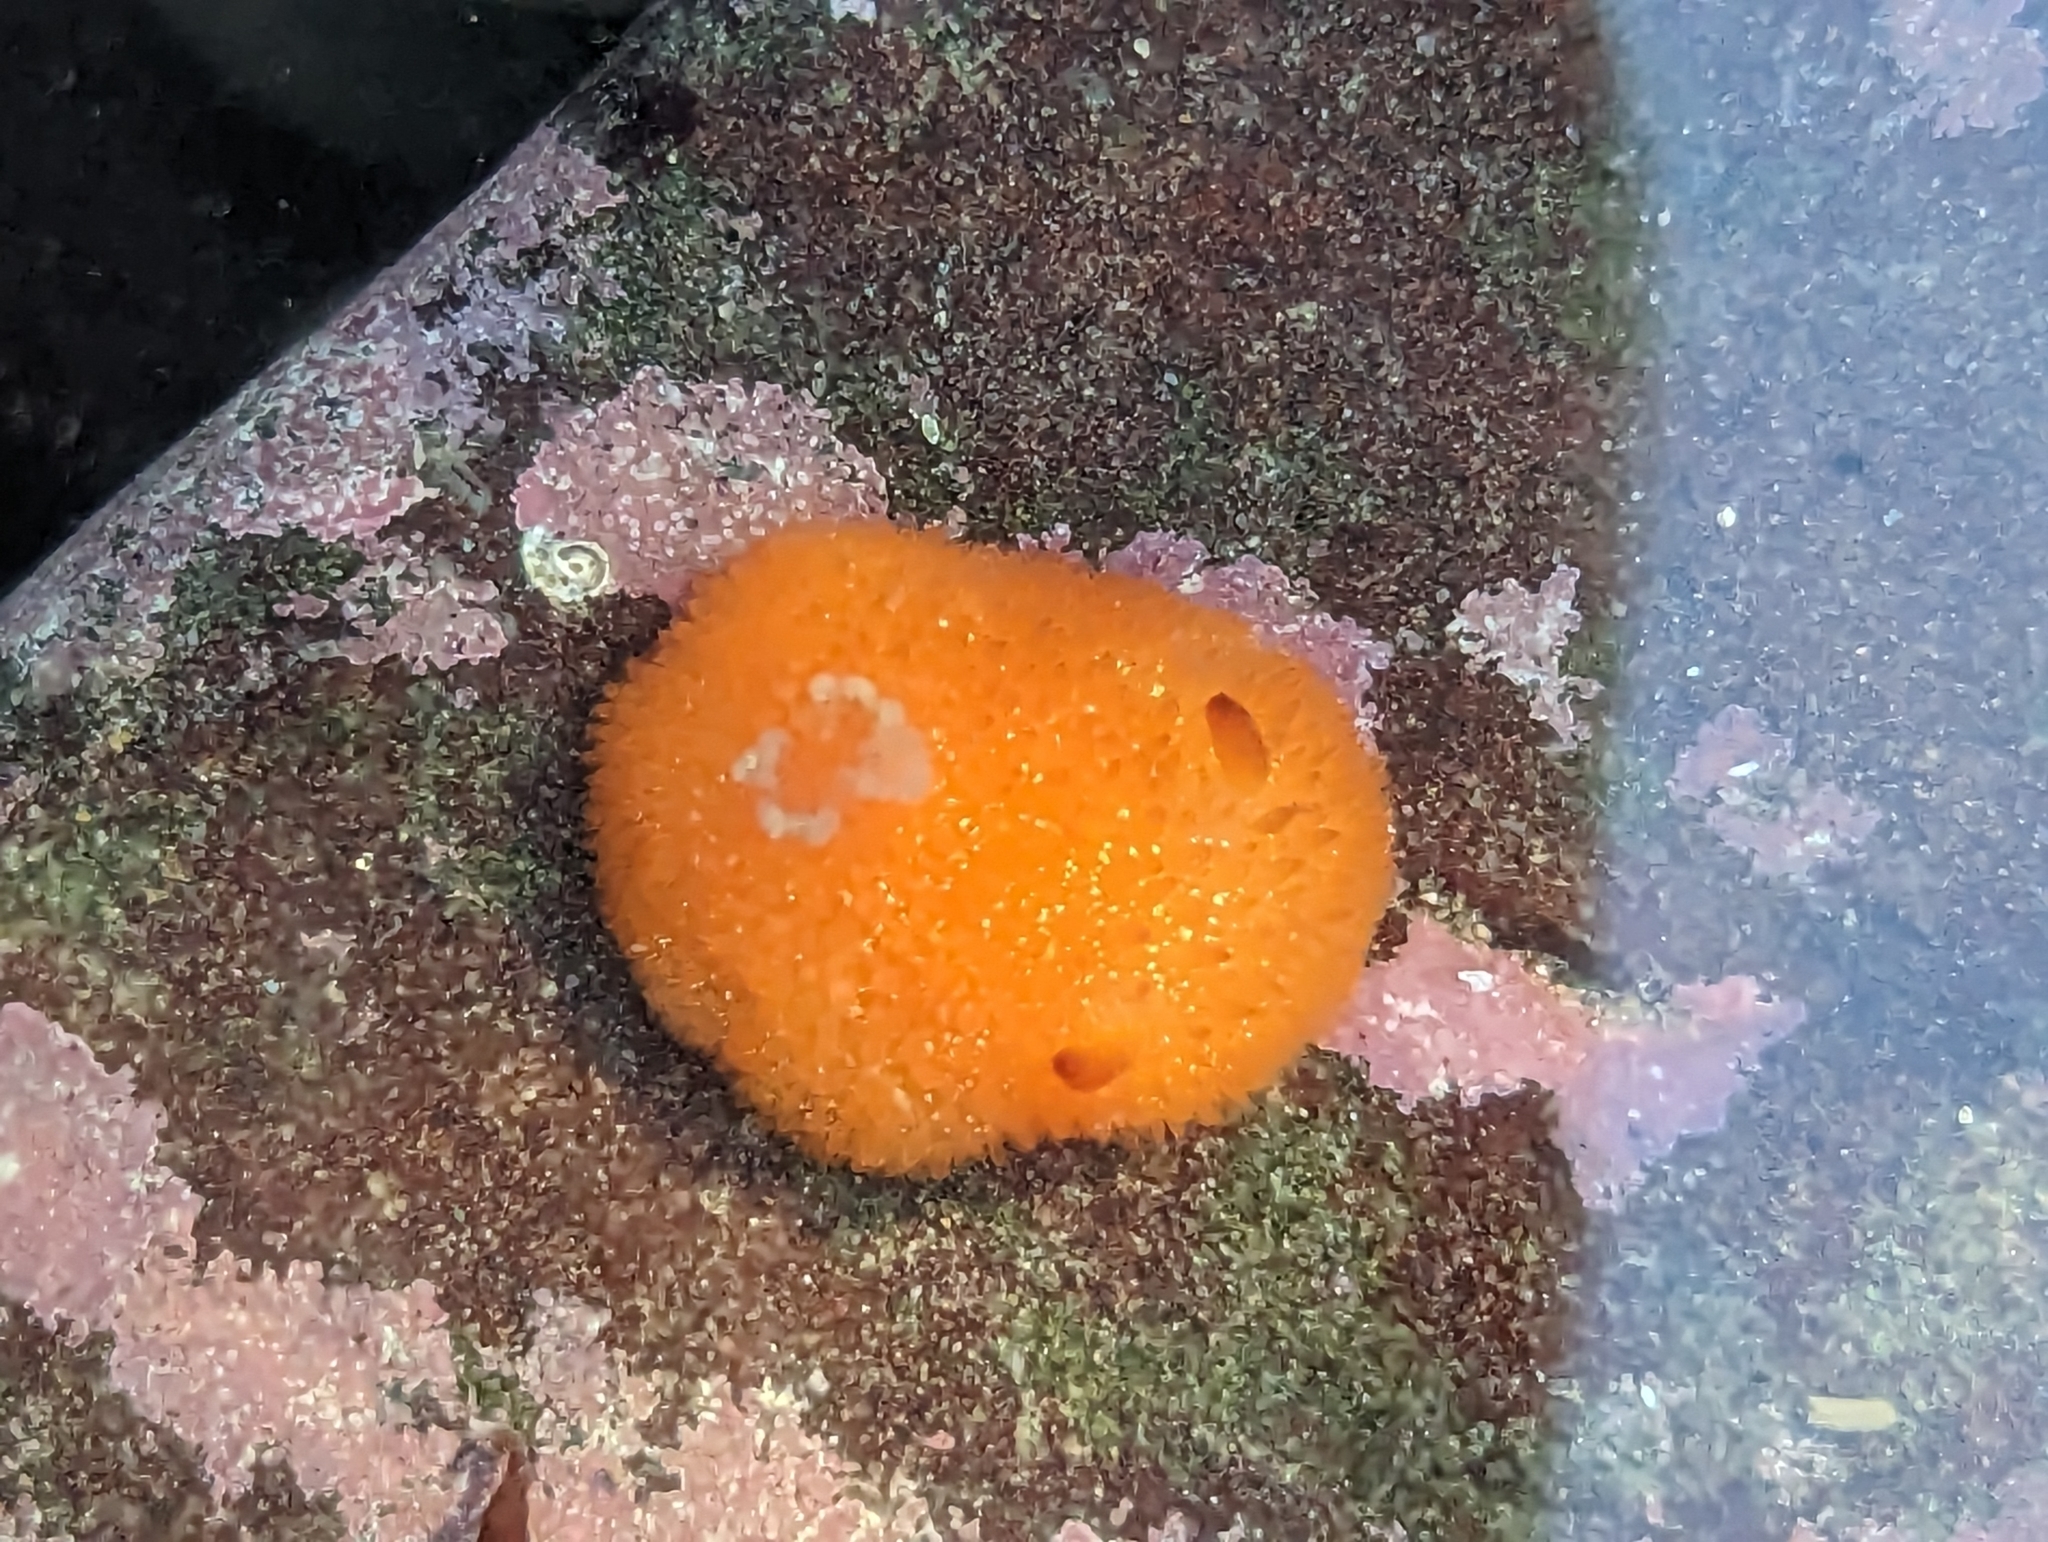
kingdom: Animalia
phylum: Mollusca
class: Gastropoda
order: Nudibranchia
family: Onchidorididae
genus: Acanthodoris
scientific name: Acanthodoris lutea
